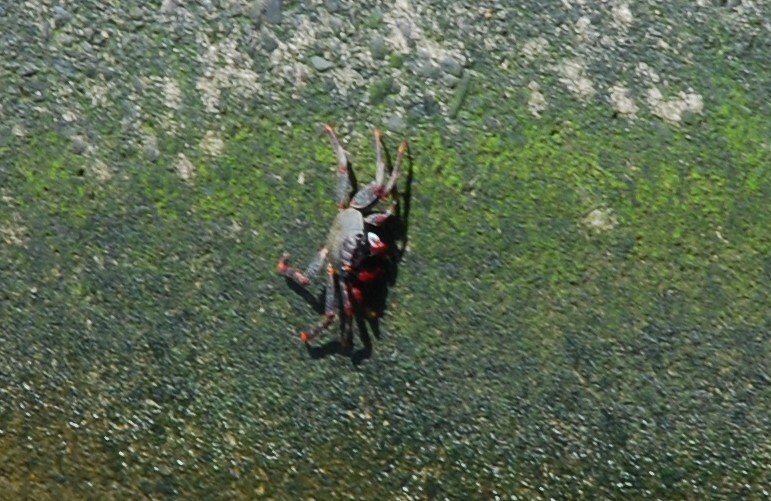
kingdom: Animalia
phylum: Arthropoda
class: Malacostraca
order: Decapoda
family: Grapsidae
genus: Grapsus
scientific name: Grapsus adscensionis
